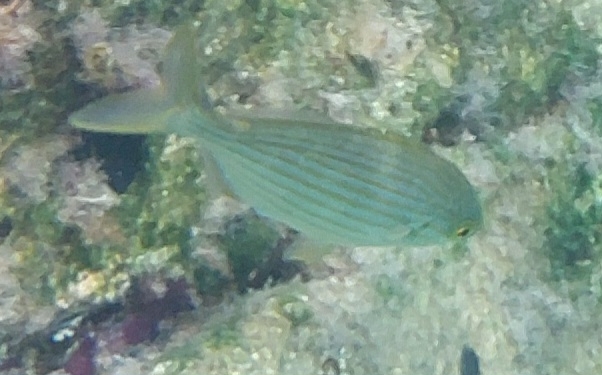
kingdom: Animalia
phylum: Chordata
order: Perciformes
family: Sparidae
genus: Sarpa
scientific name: Sarpa salpa
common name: Salema
